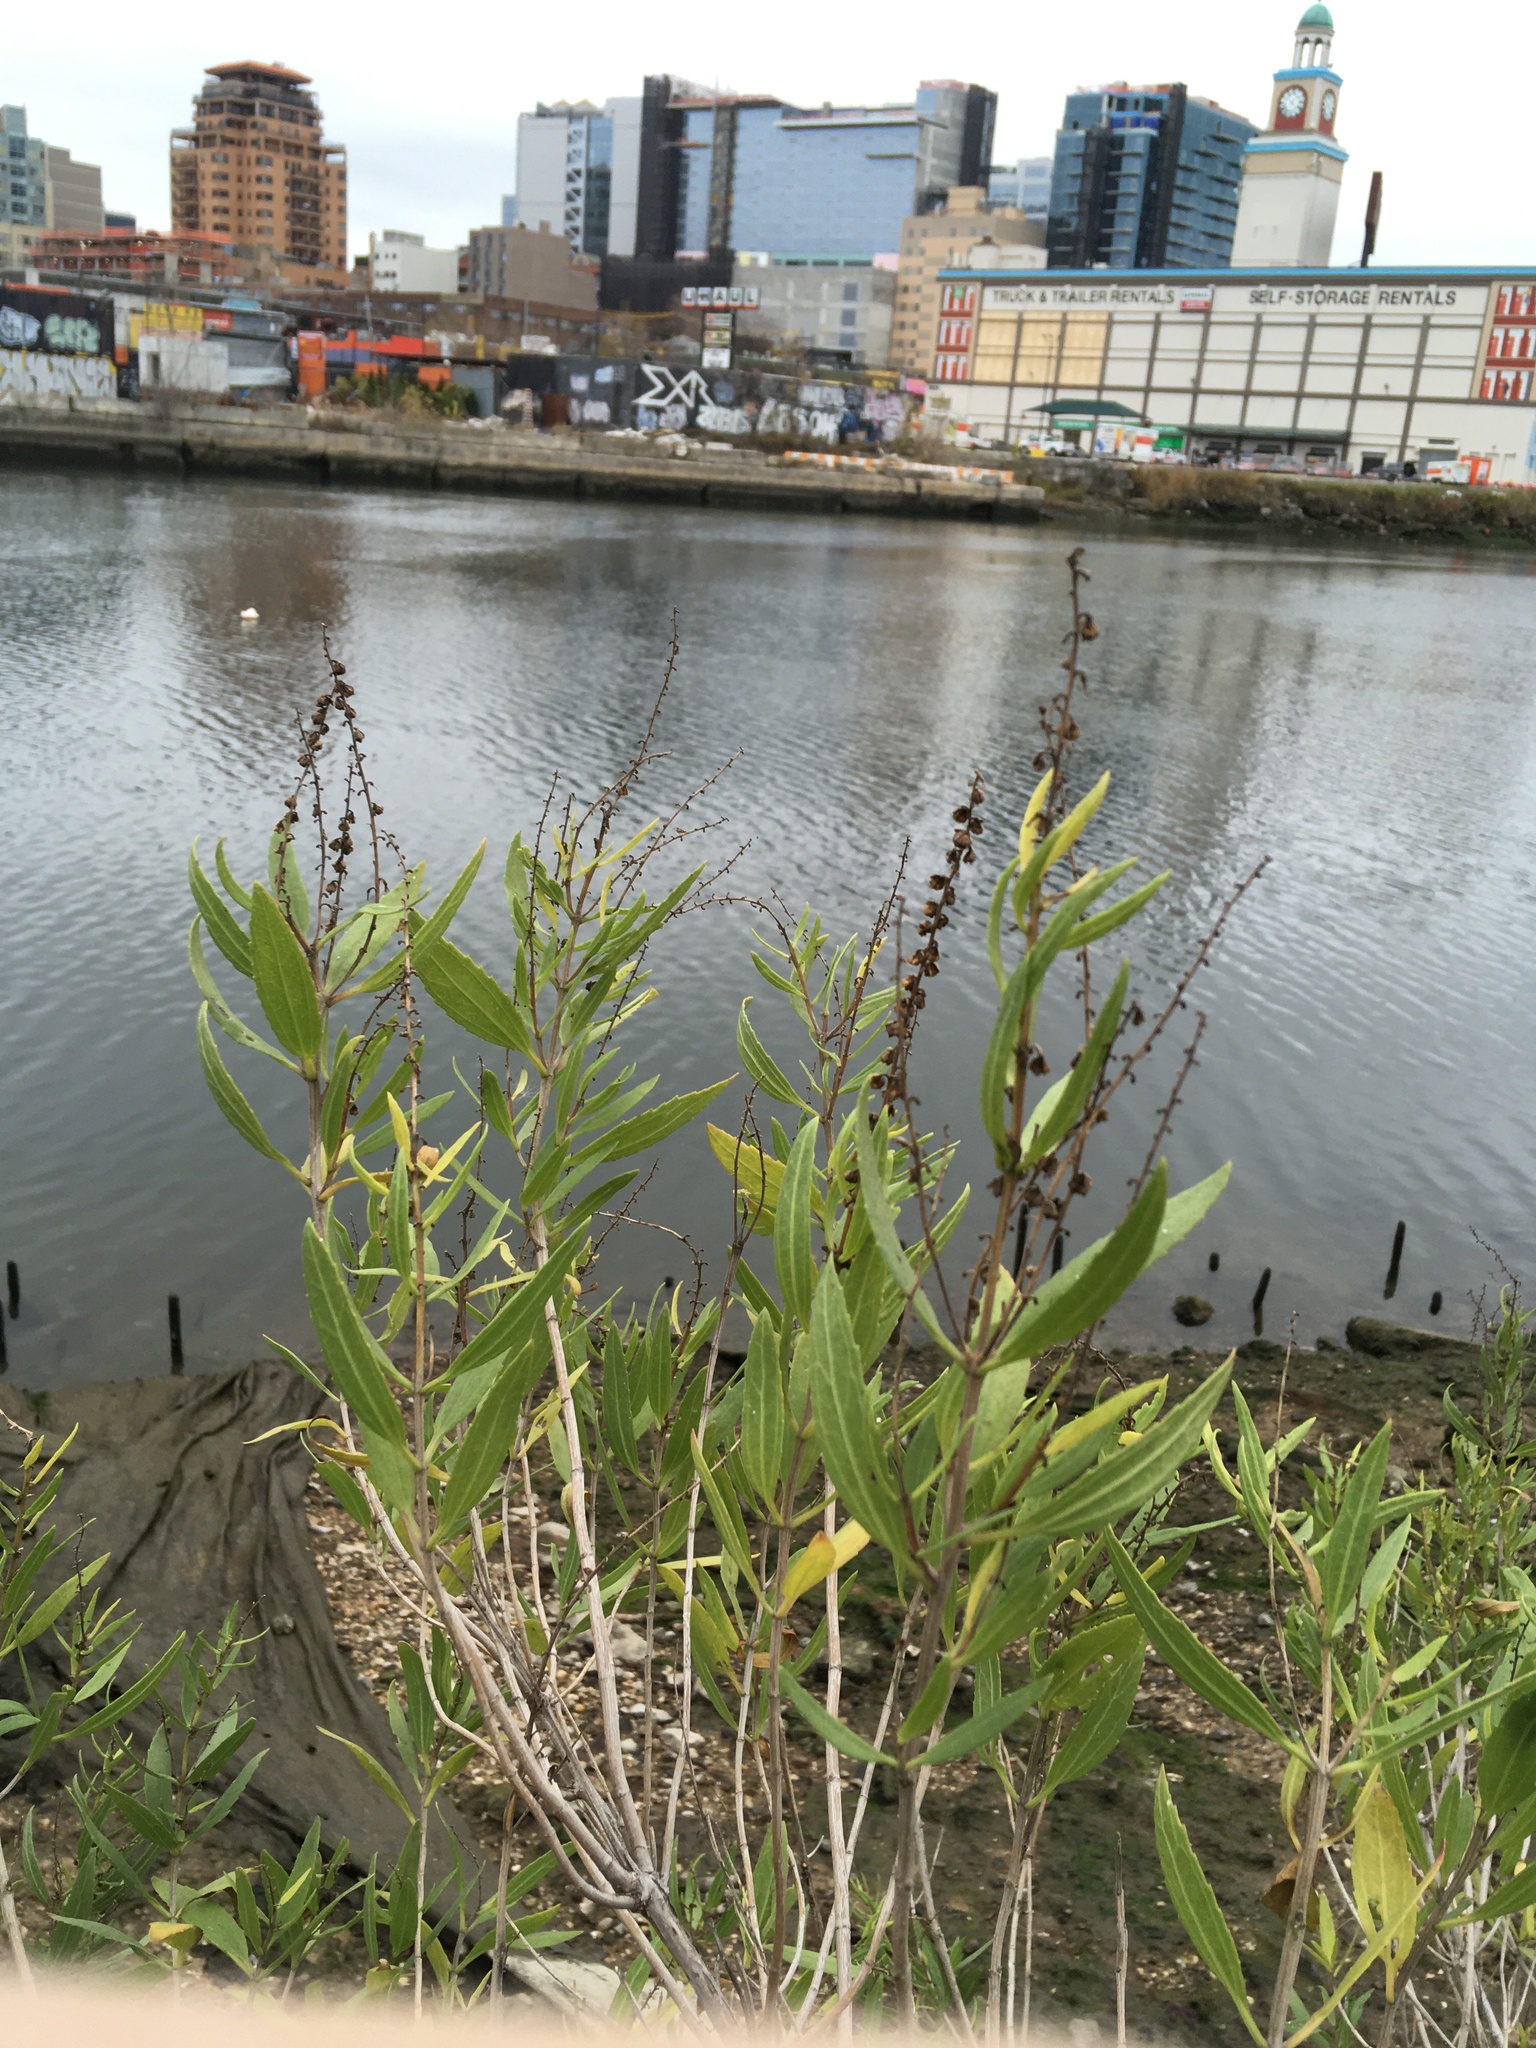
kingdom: Plantae
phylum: Tracheophyta
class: Magnoliopsida
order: Asterales
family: Asteraceae
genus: Iva
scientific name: Iva frutescens
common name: Big-leaved marsh-elder
